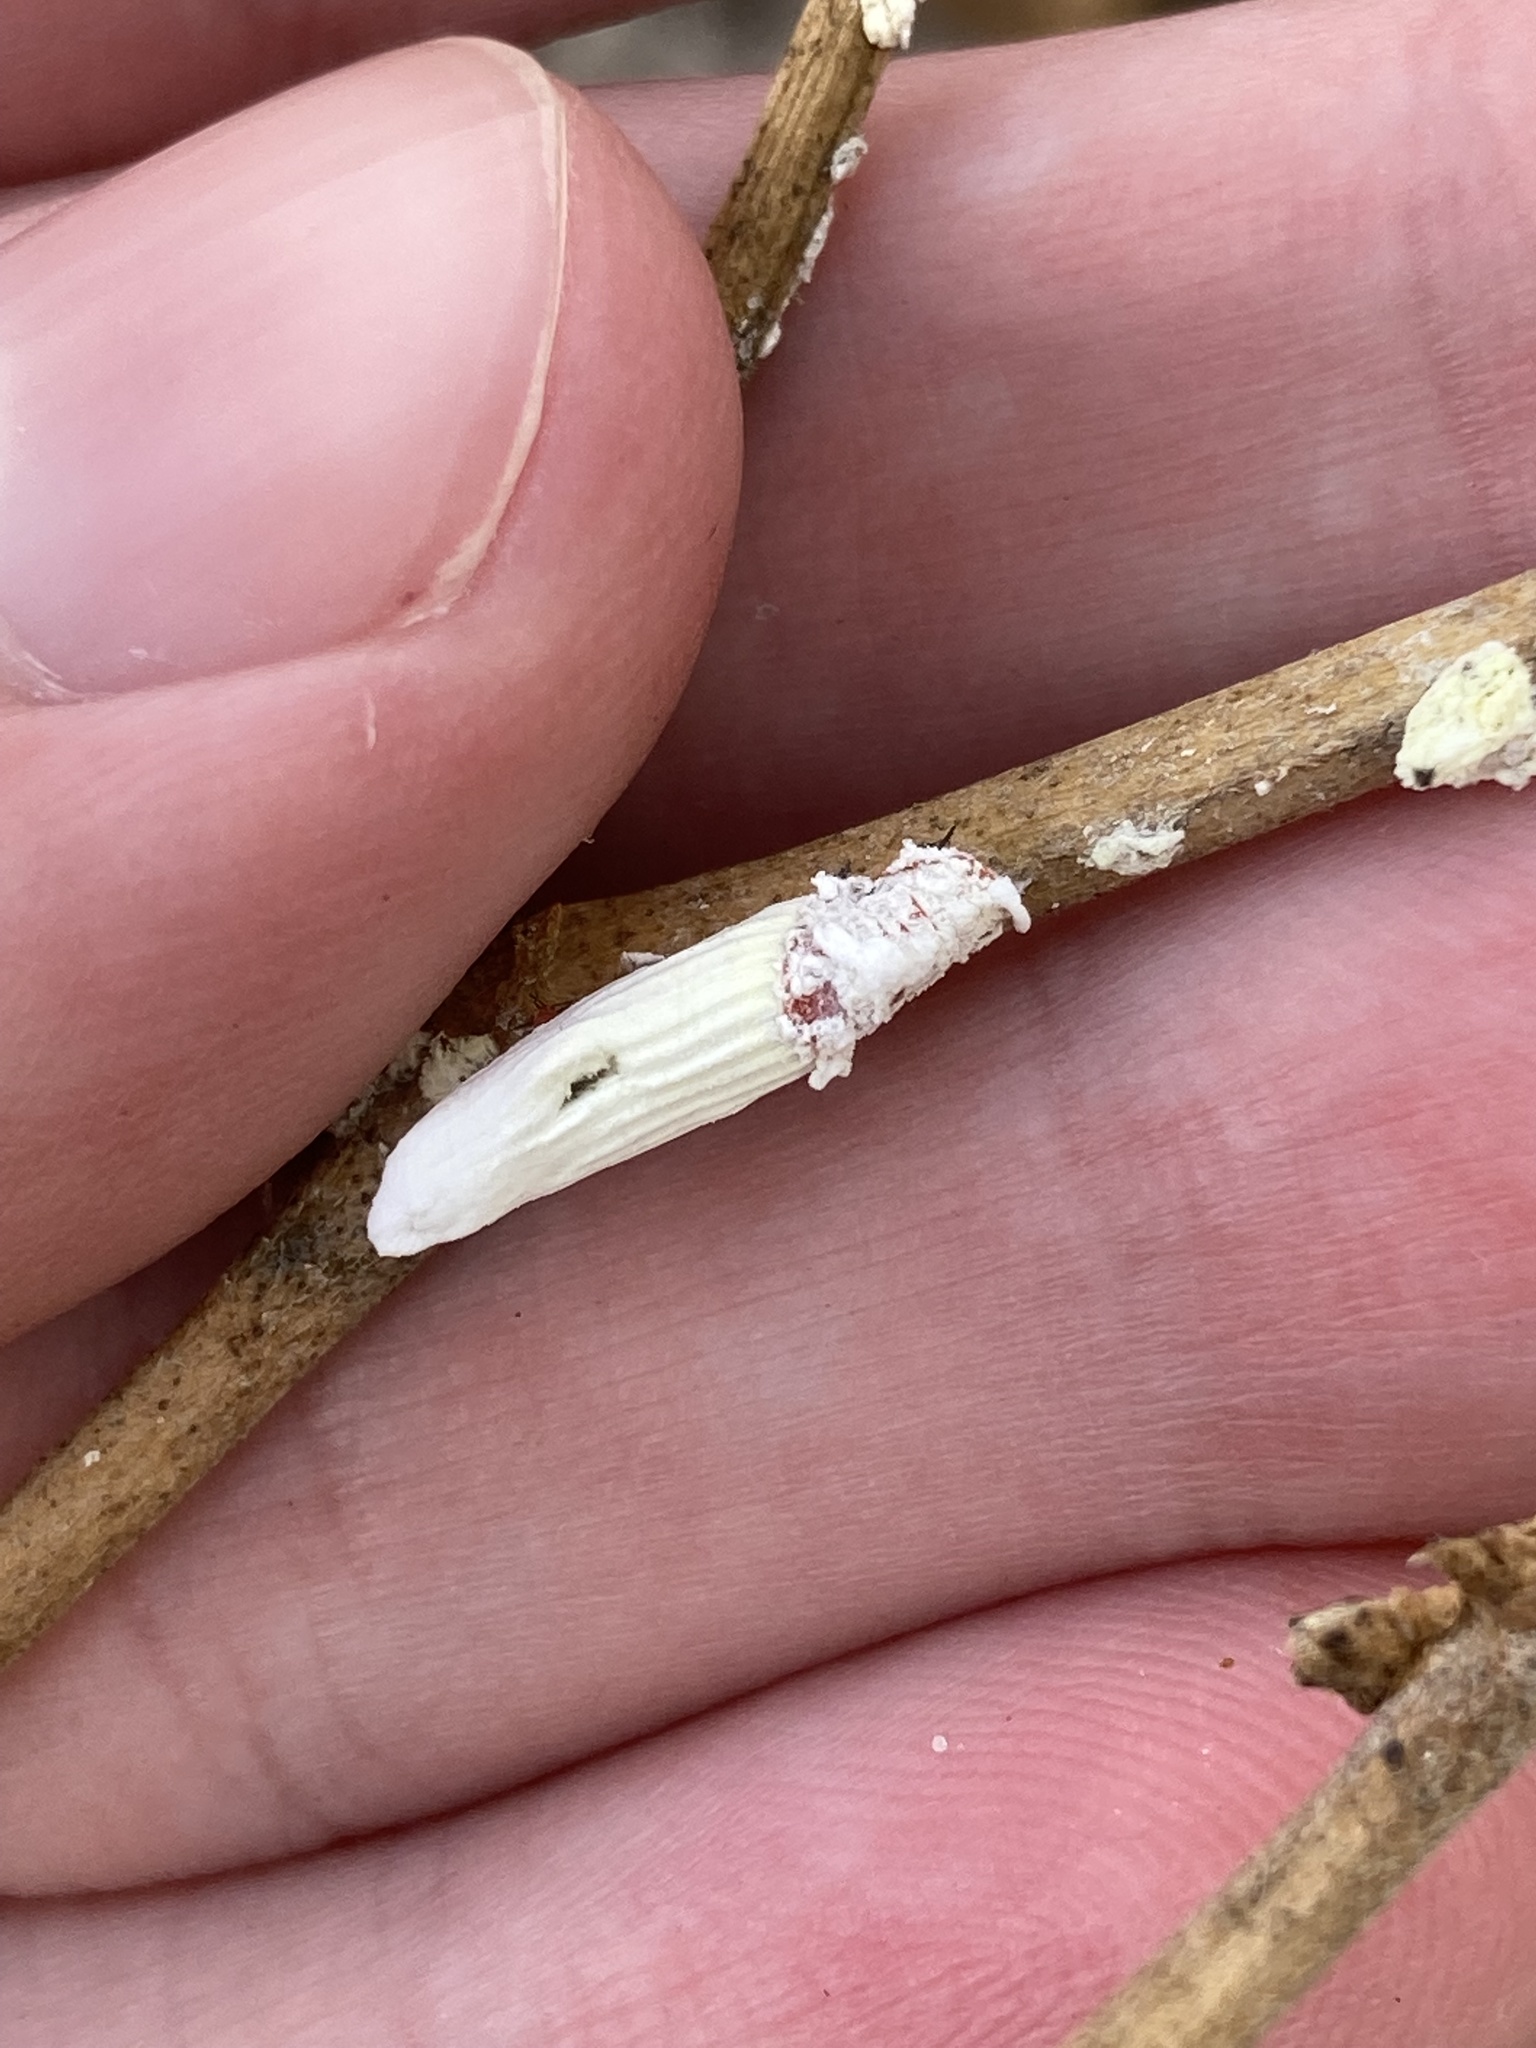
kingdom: Animalia
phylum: Arthropoda
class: Insecta
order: Hemiptera
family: Margarodidae
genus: Crypticerya
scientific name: Crypticerya genistae
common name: Giant scale insect
